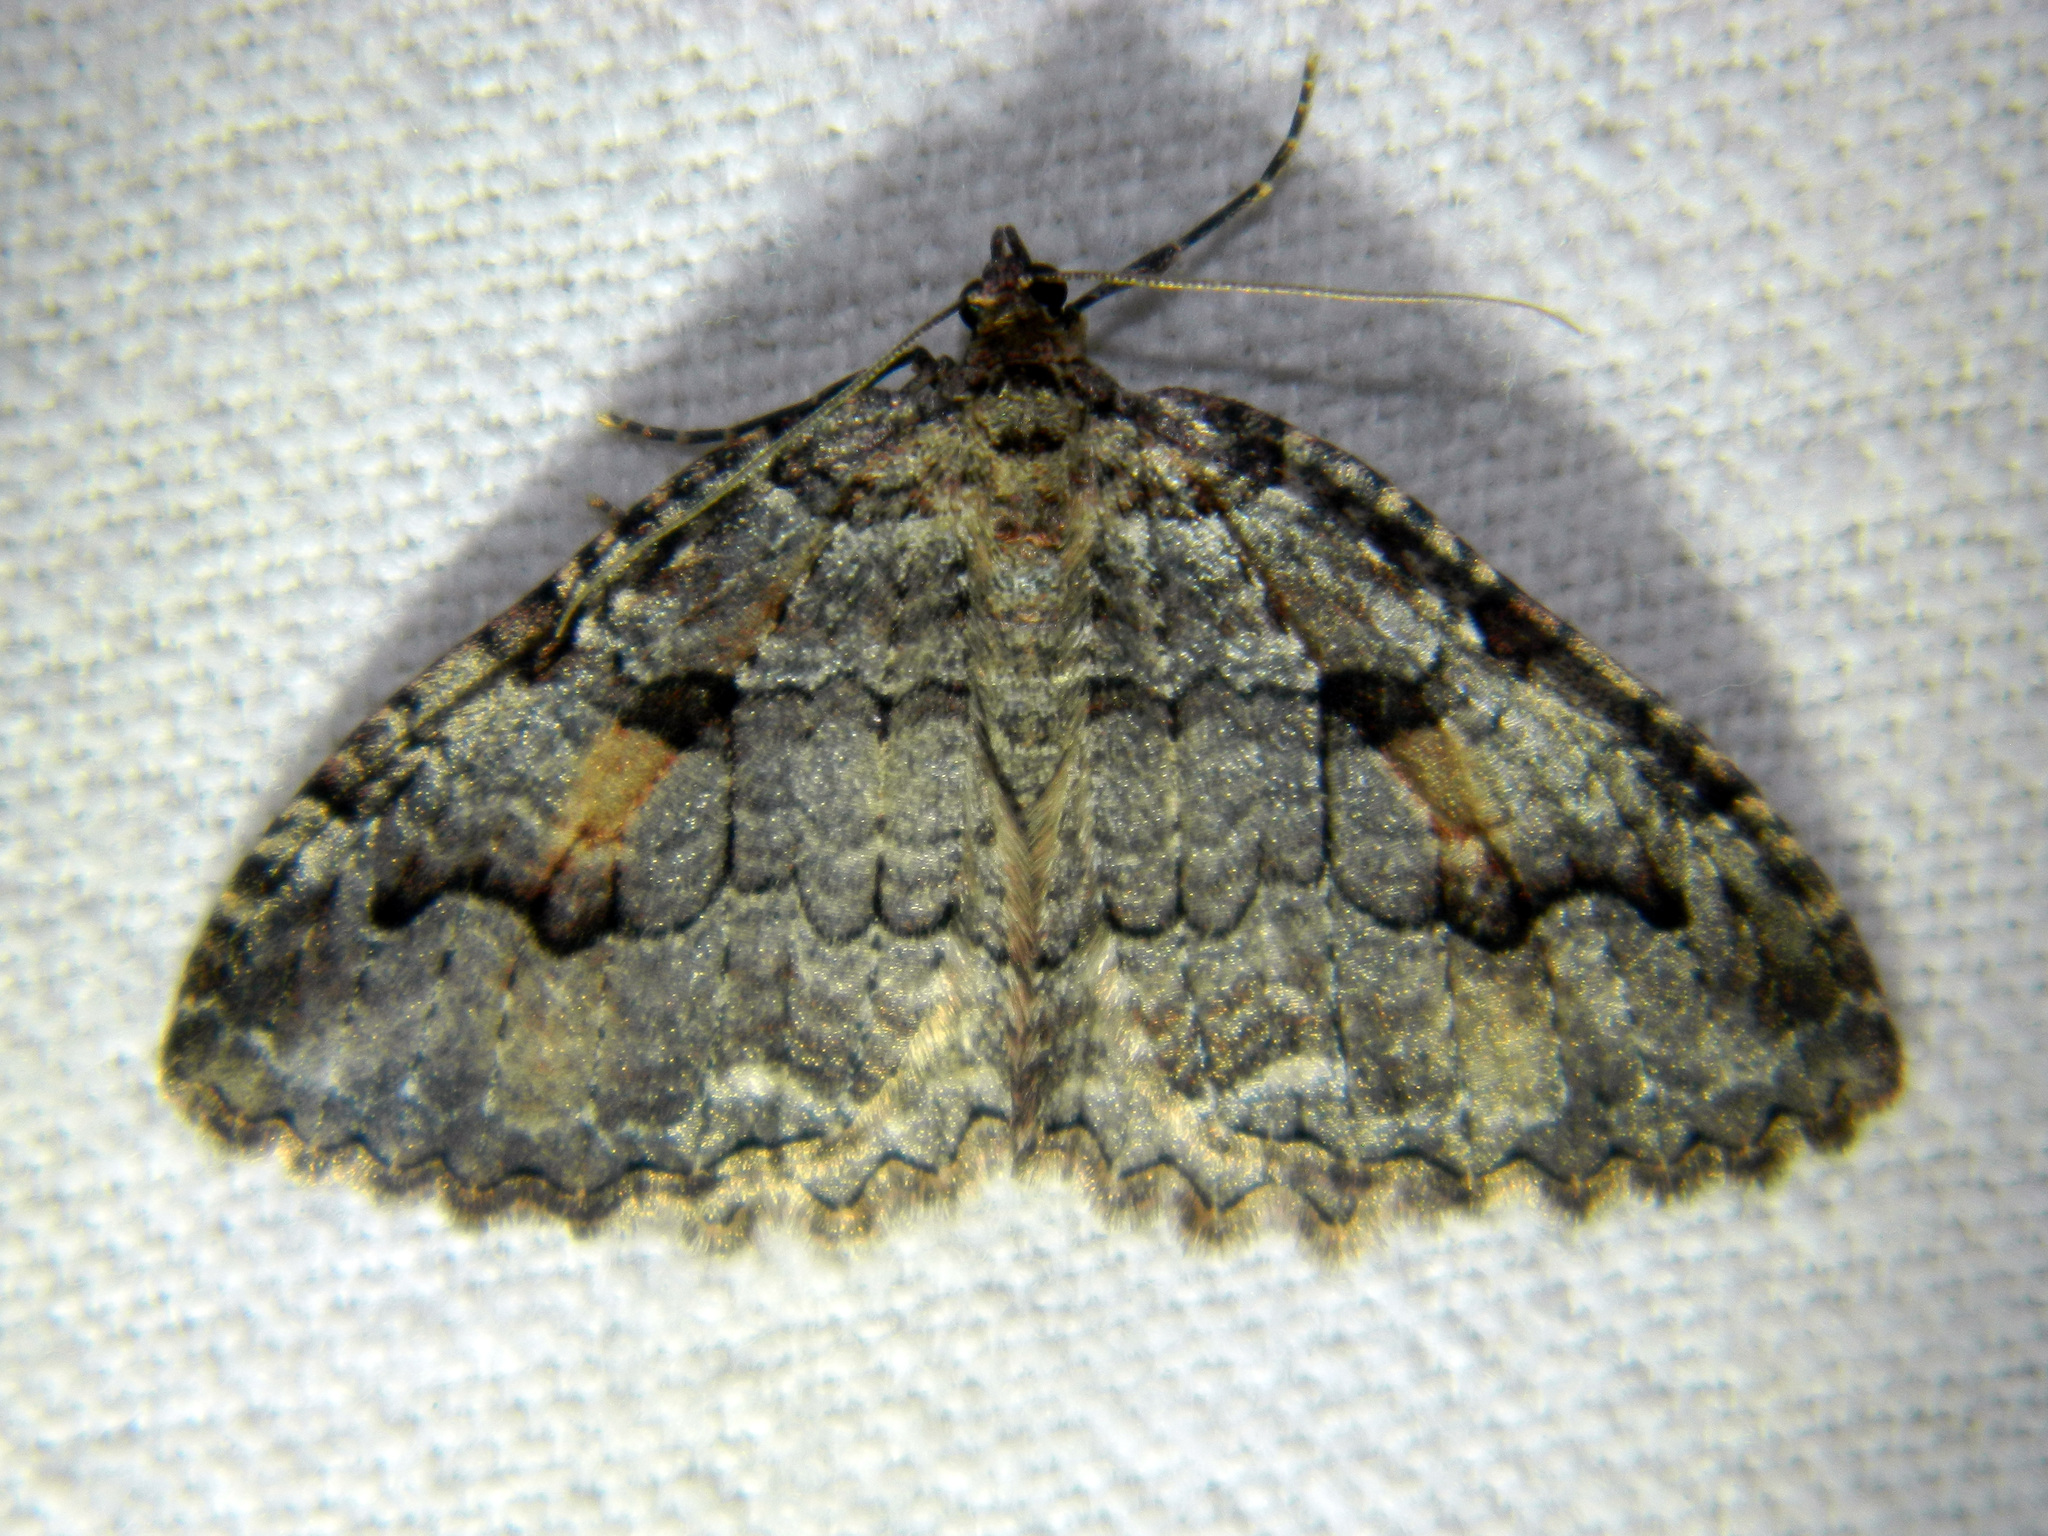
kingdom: Animalia
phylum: Arthropoda
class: Insecta
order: Lepidoptera
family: Geometridae
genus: Triphosa
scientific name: Triphosa haesitata
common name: Tissue moth
